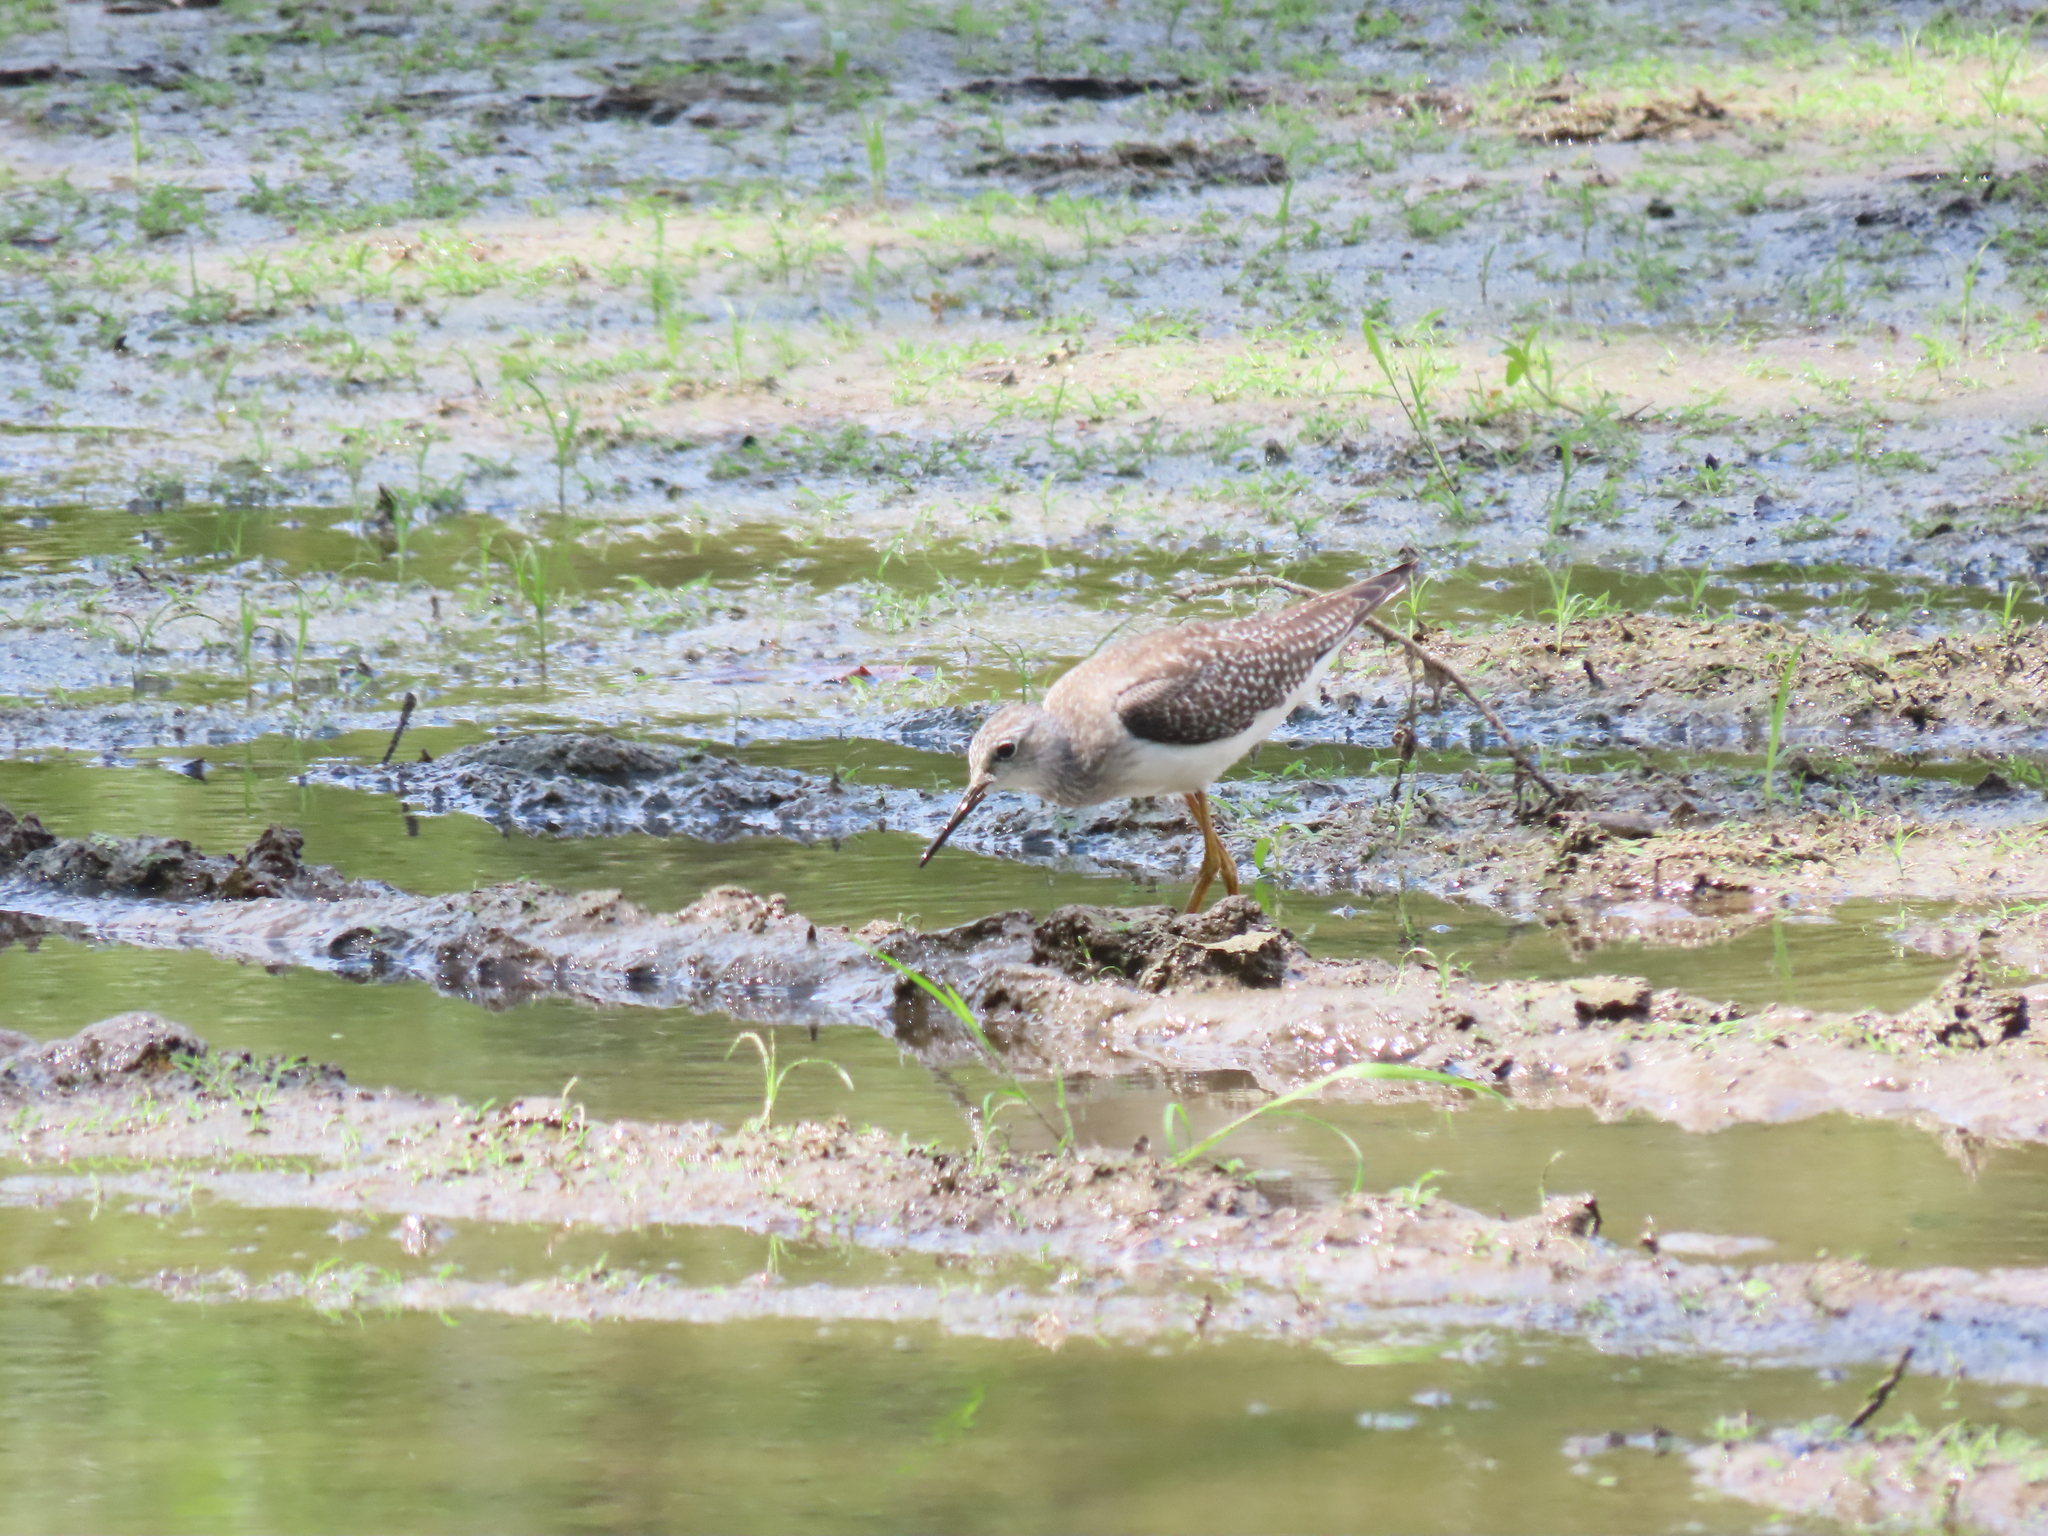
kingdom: Animalia
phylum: Chordata
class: Aves
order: Charadriiformes
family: Scolopacidae
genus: Tringa
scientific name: Tringa flavipes
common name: Lesser yellowlegs
